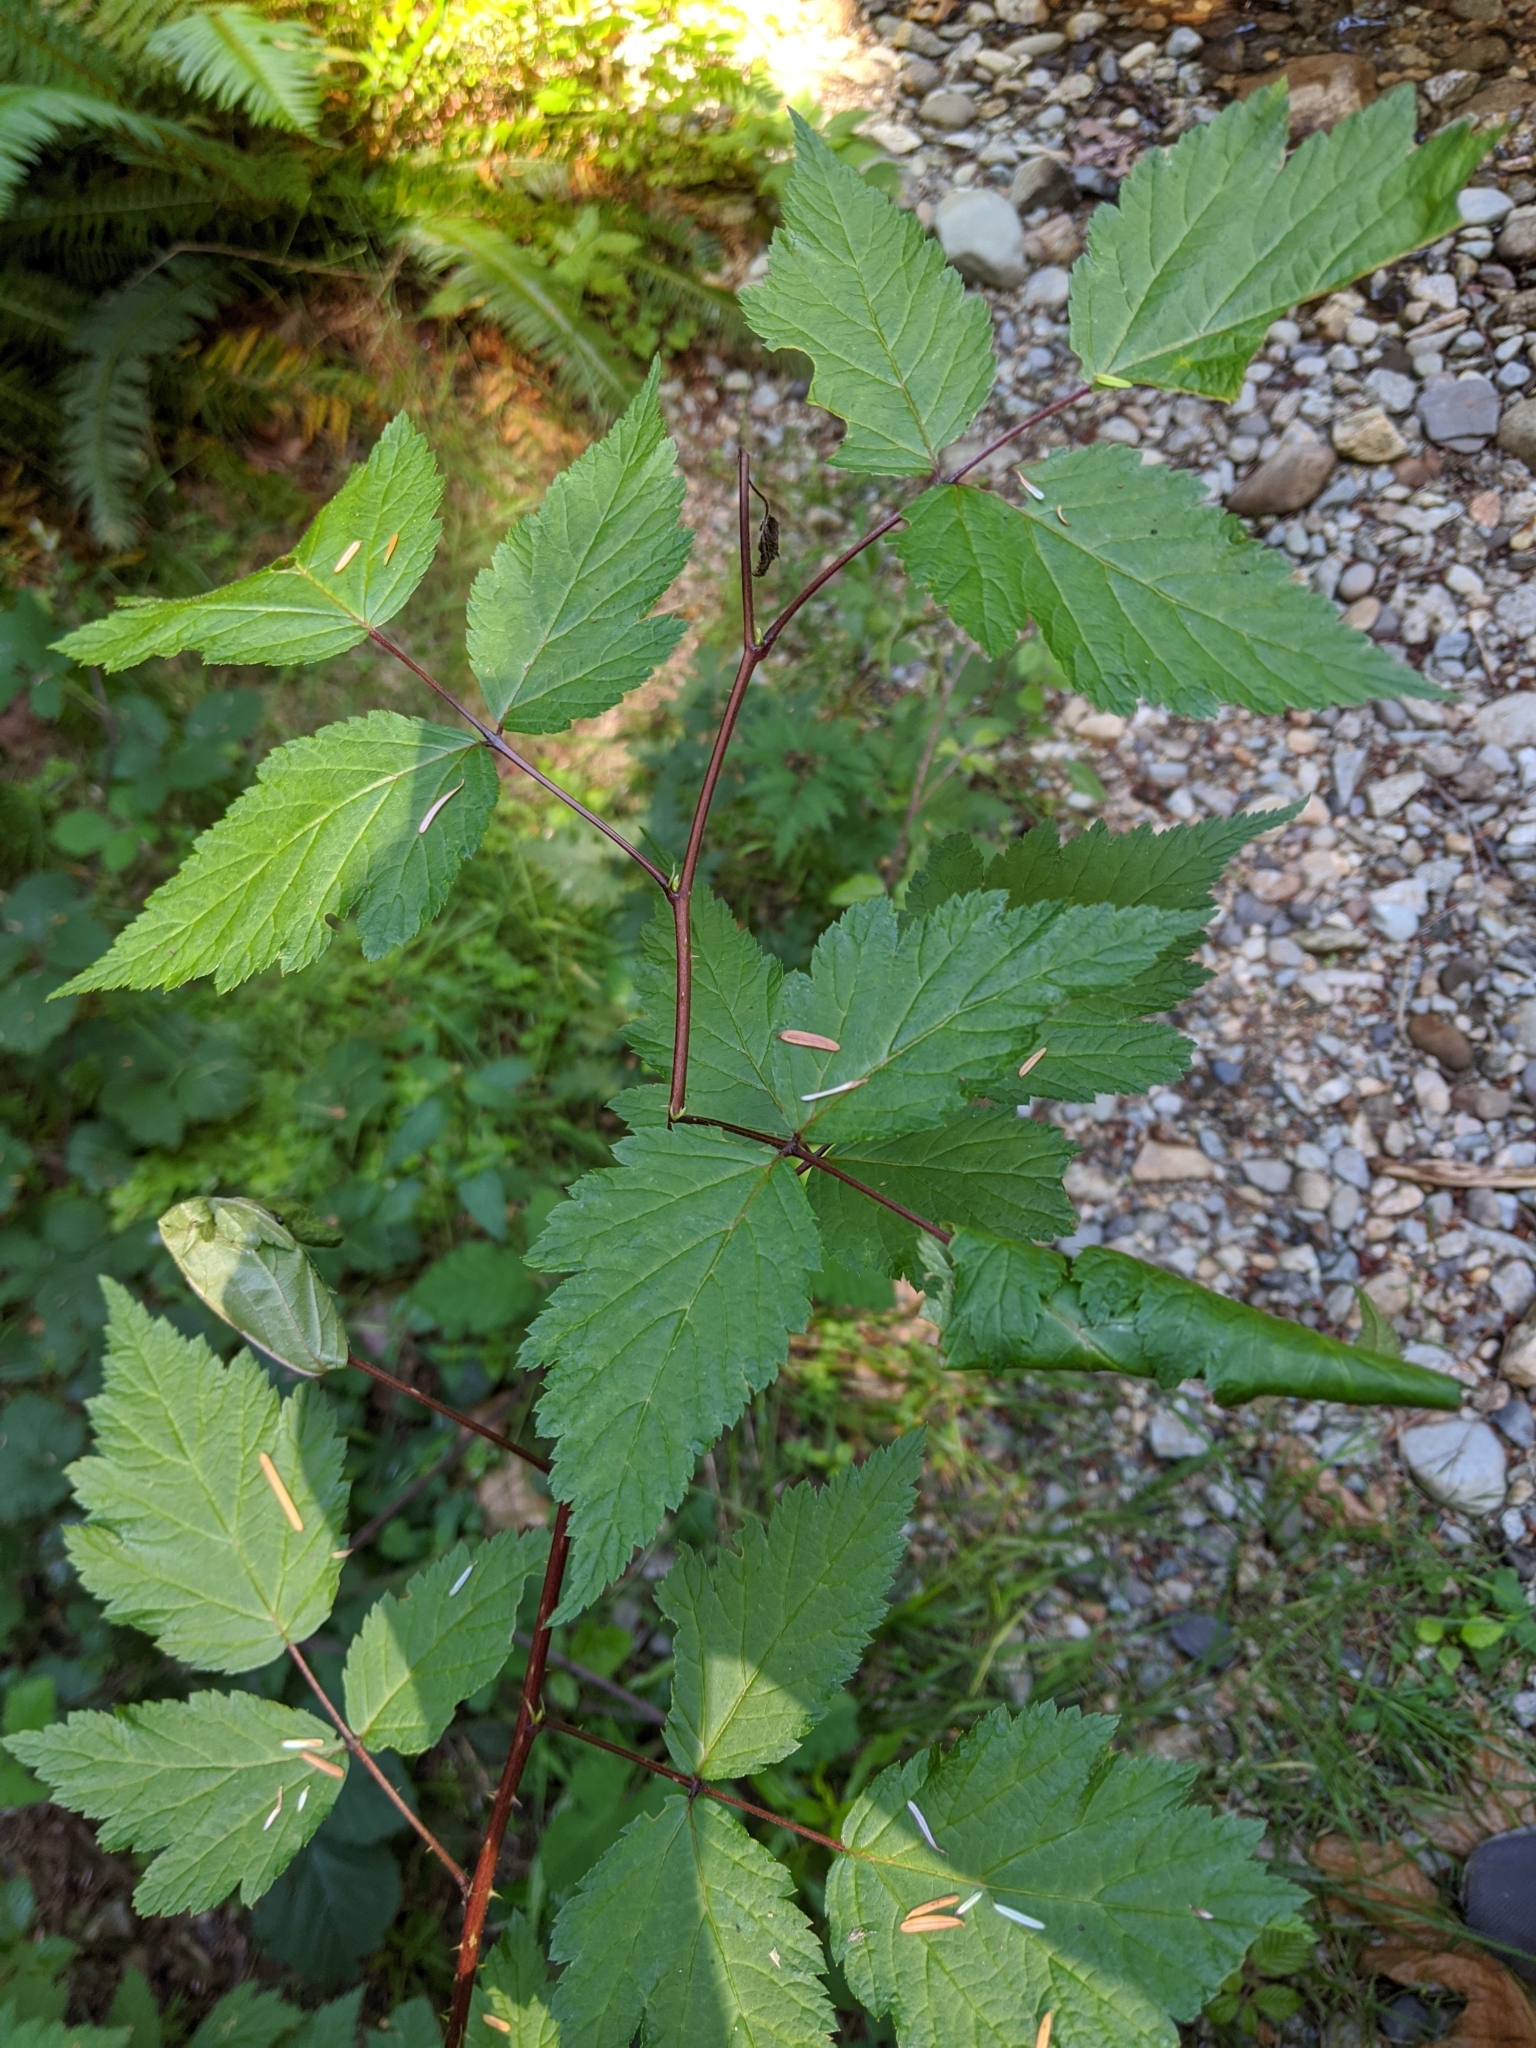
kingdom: Plantae
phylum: Tracheophyta
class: Magnoliopsida
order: Rosales
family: Rosaceae
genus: Rubus
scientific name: Rubus spectabilis
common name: Salmonberry
